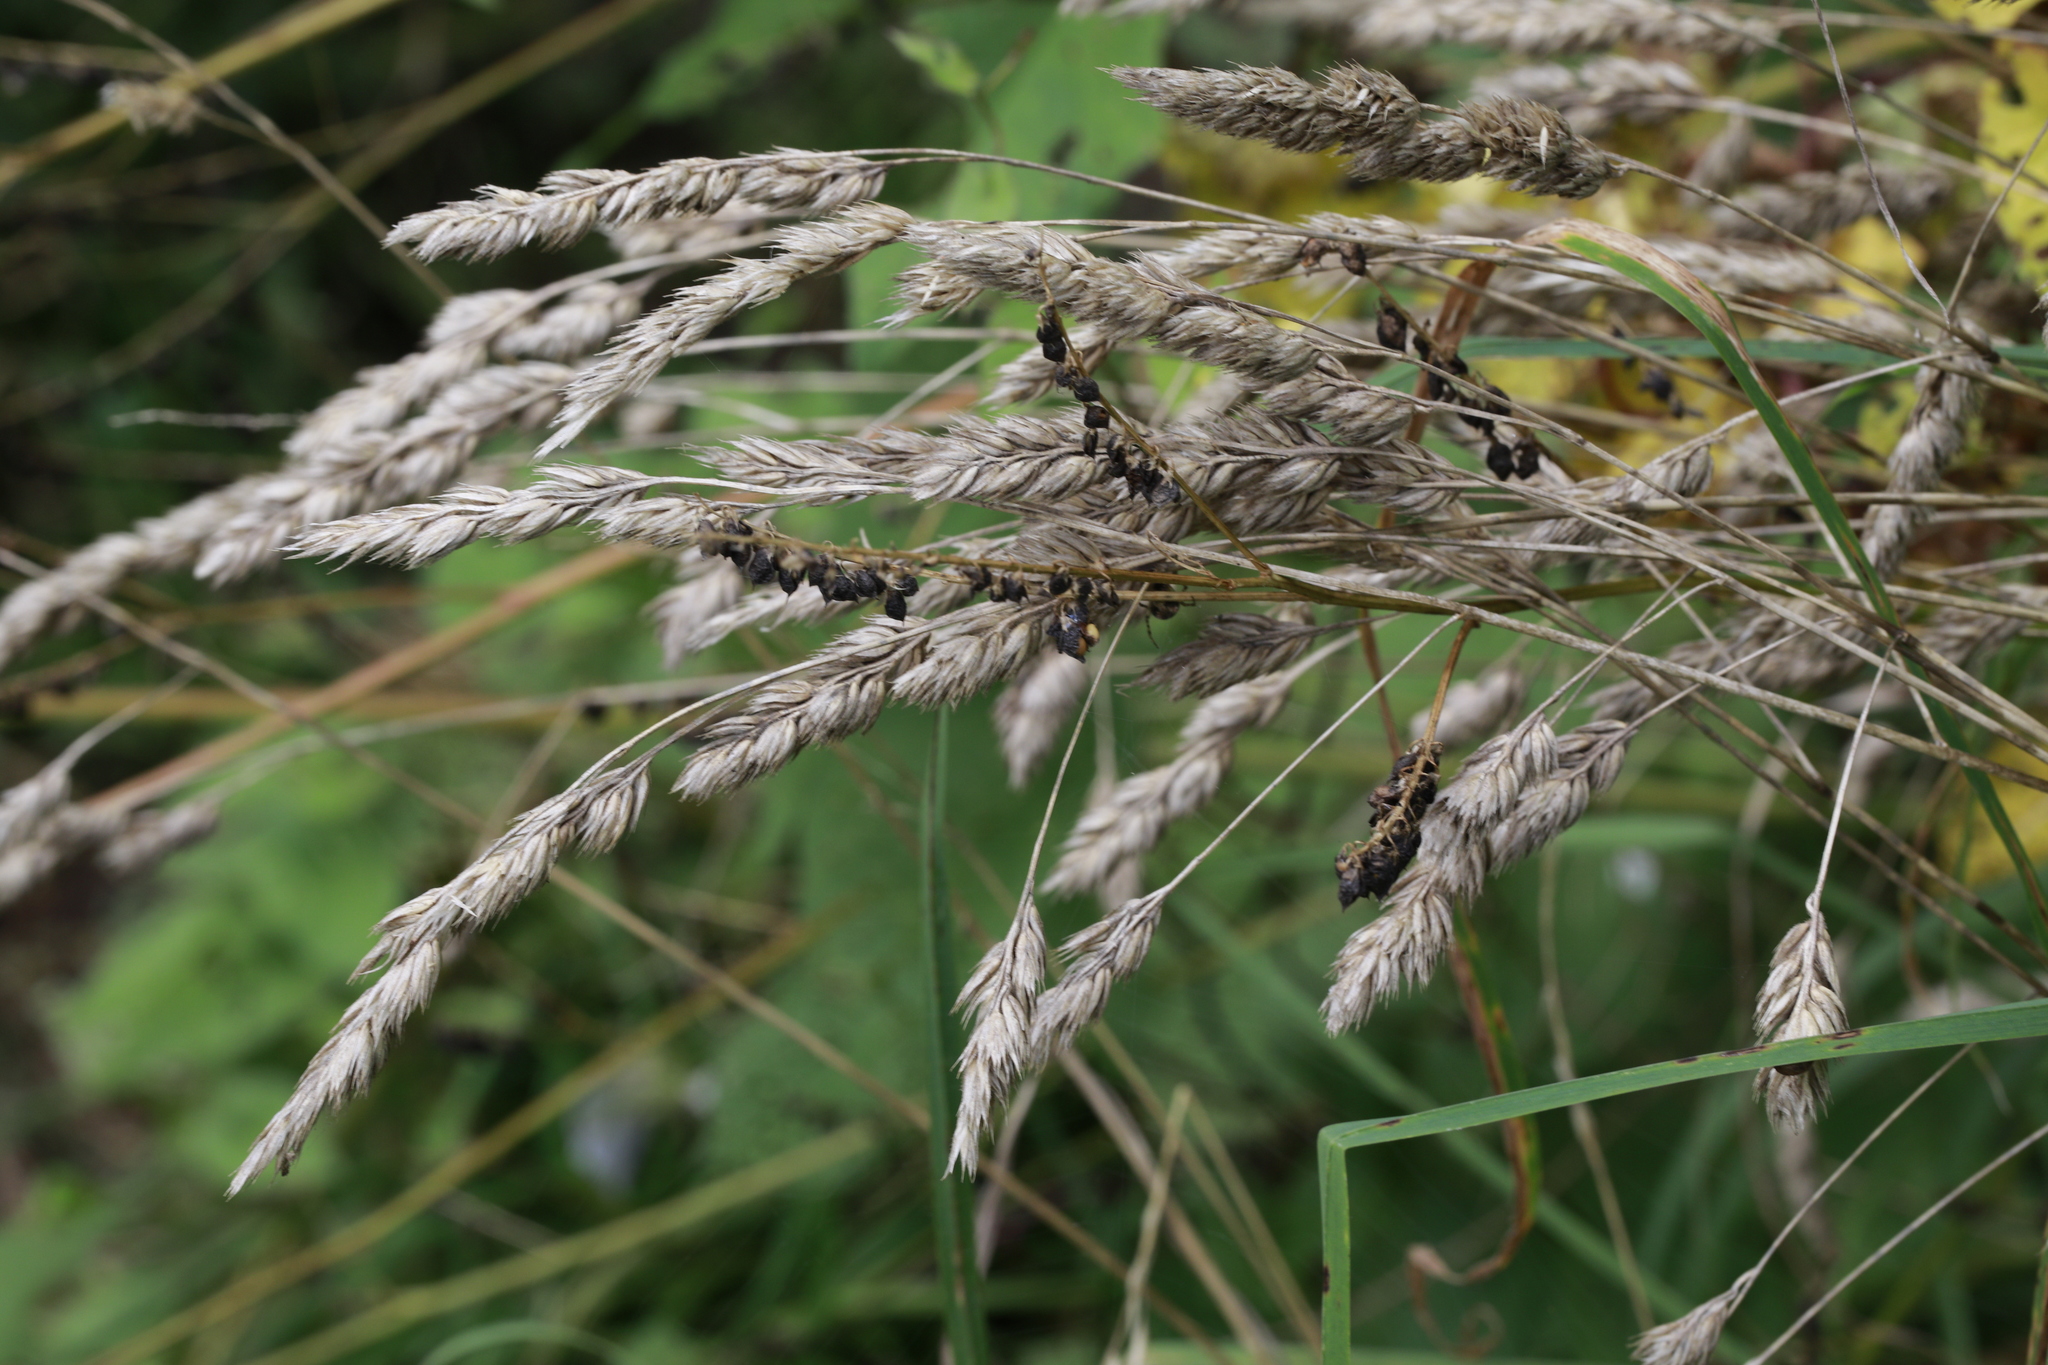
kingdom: Plantae
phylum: Tracheophyta
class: Liliopsida
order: Poales
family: Poaceae
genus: Dactylis
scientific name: Dactylis glomerata
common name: Orchardgrass
